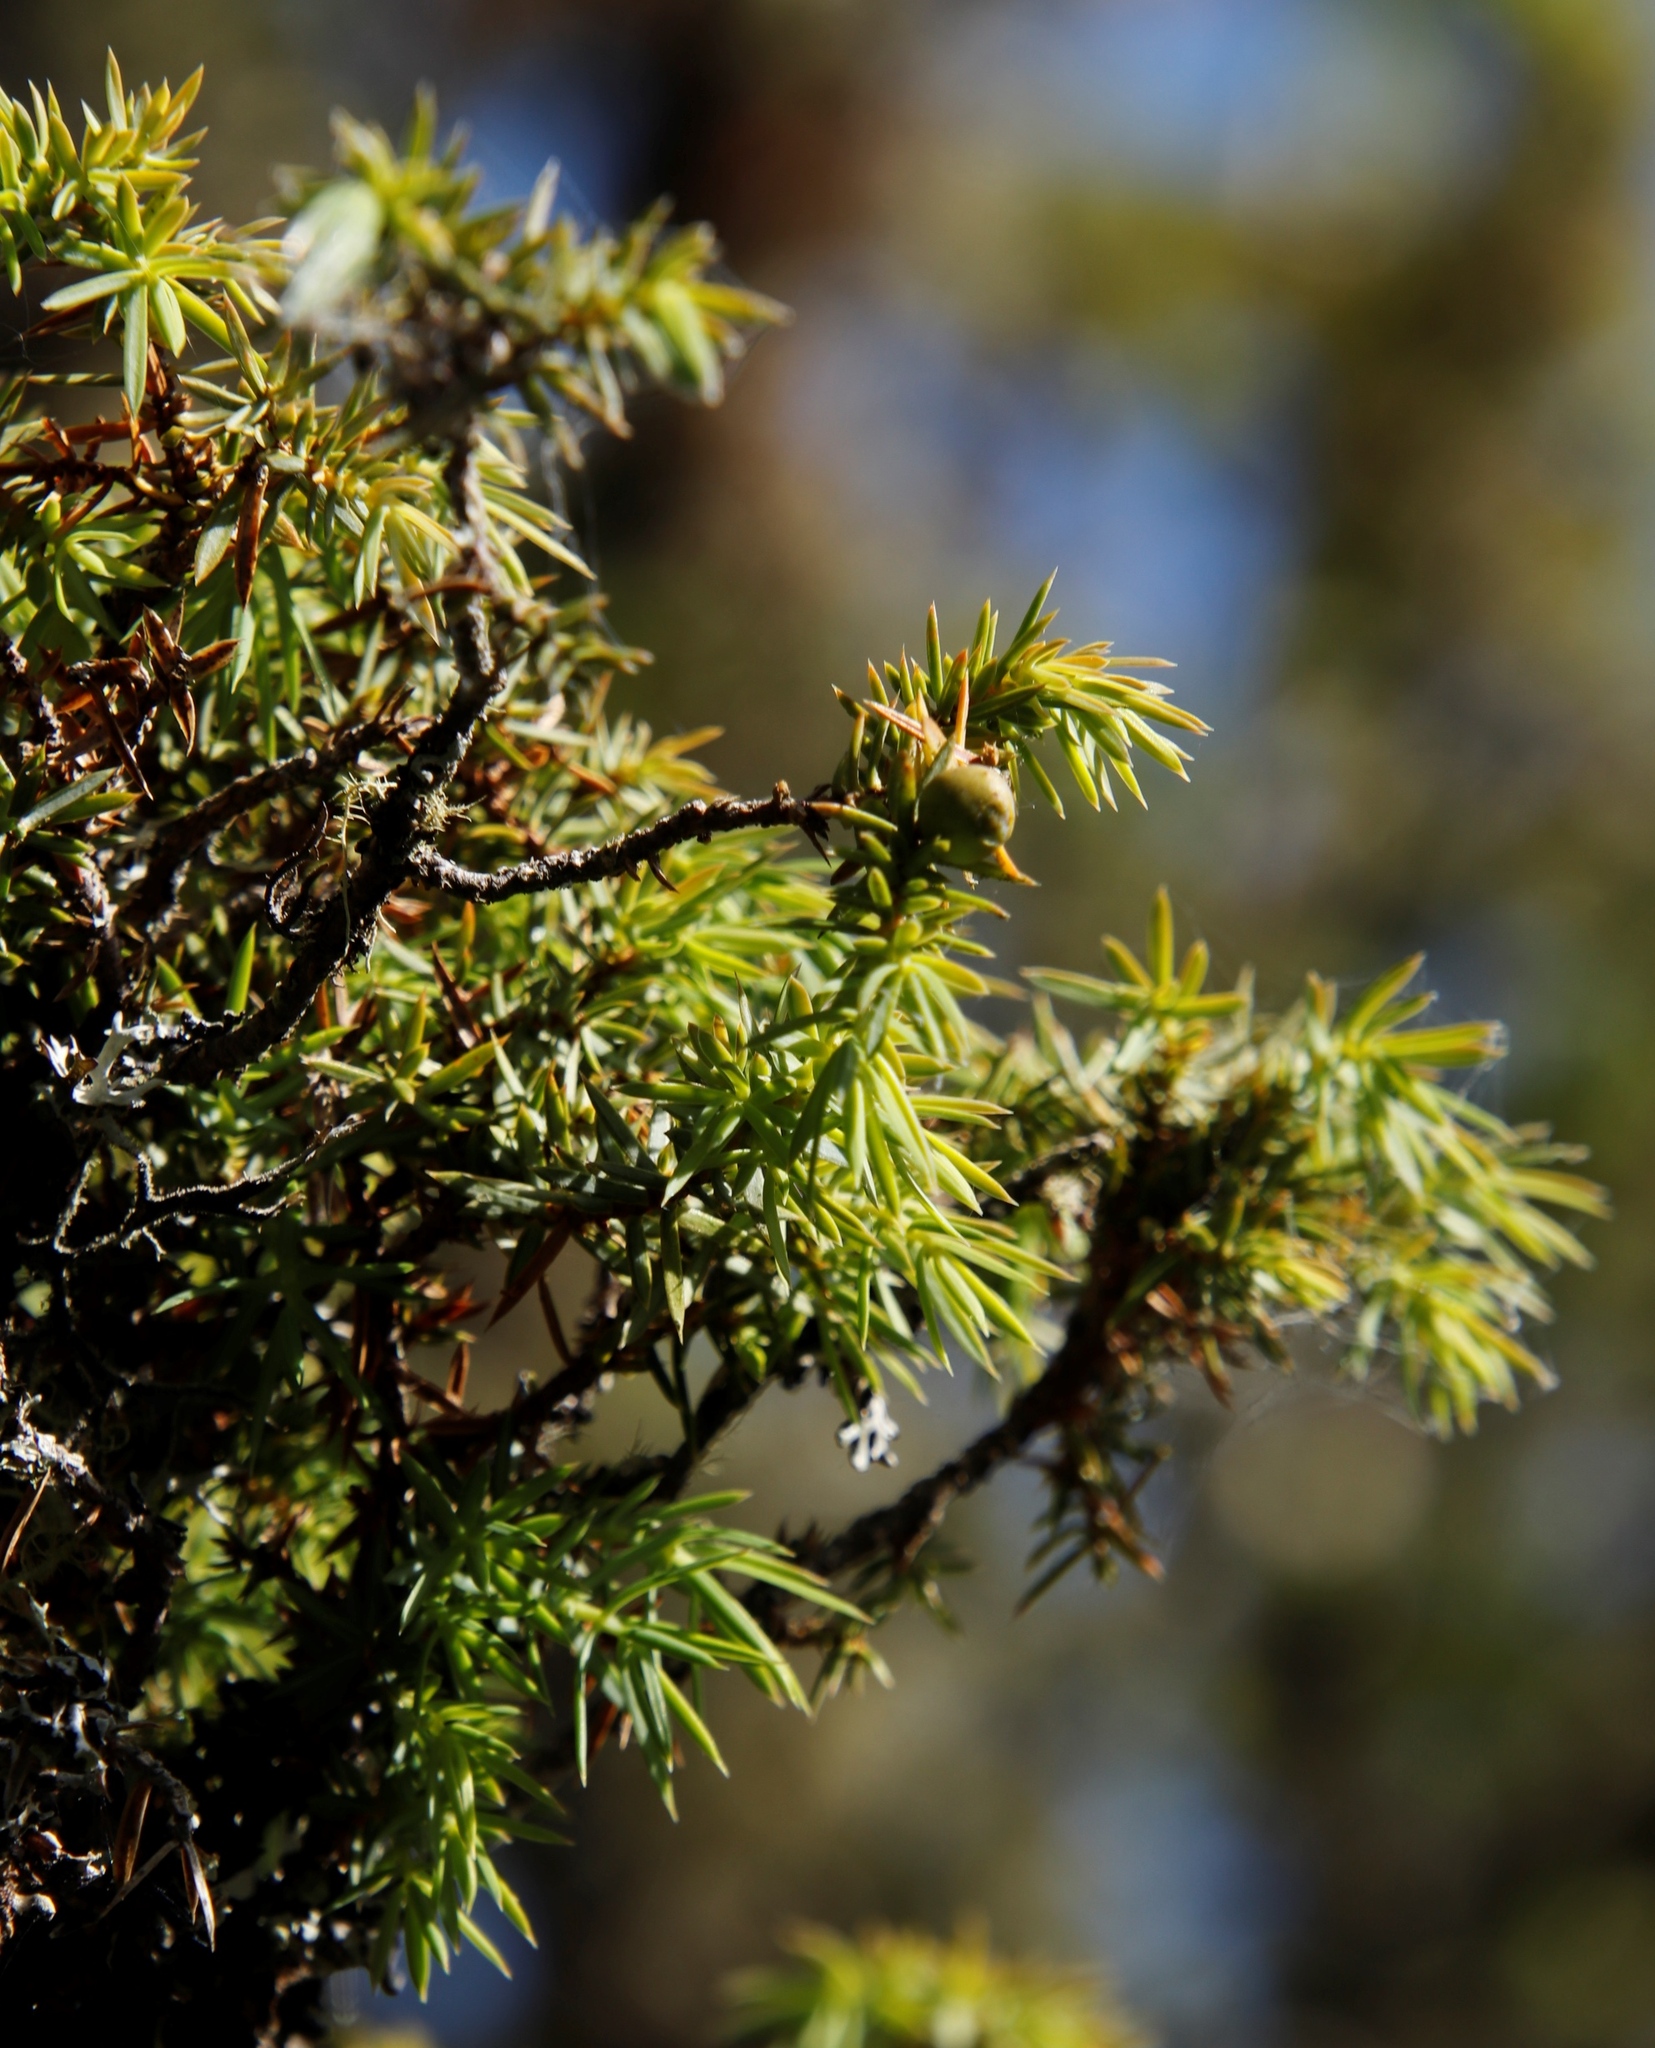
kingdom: Plantae
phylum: Tracheophyta
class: Pinopsida
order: Pinales
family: Cupressaceae
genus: Juniperus
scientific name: Juniperus communis
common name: Common juniper
